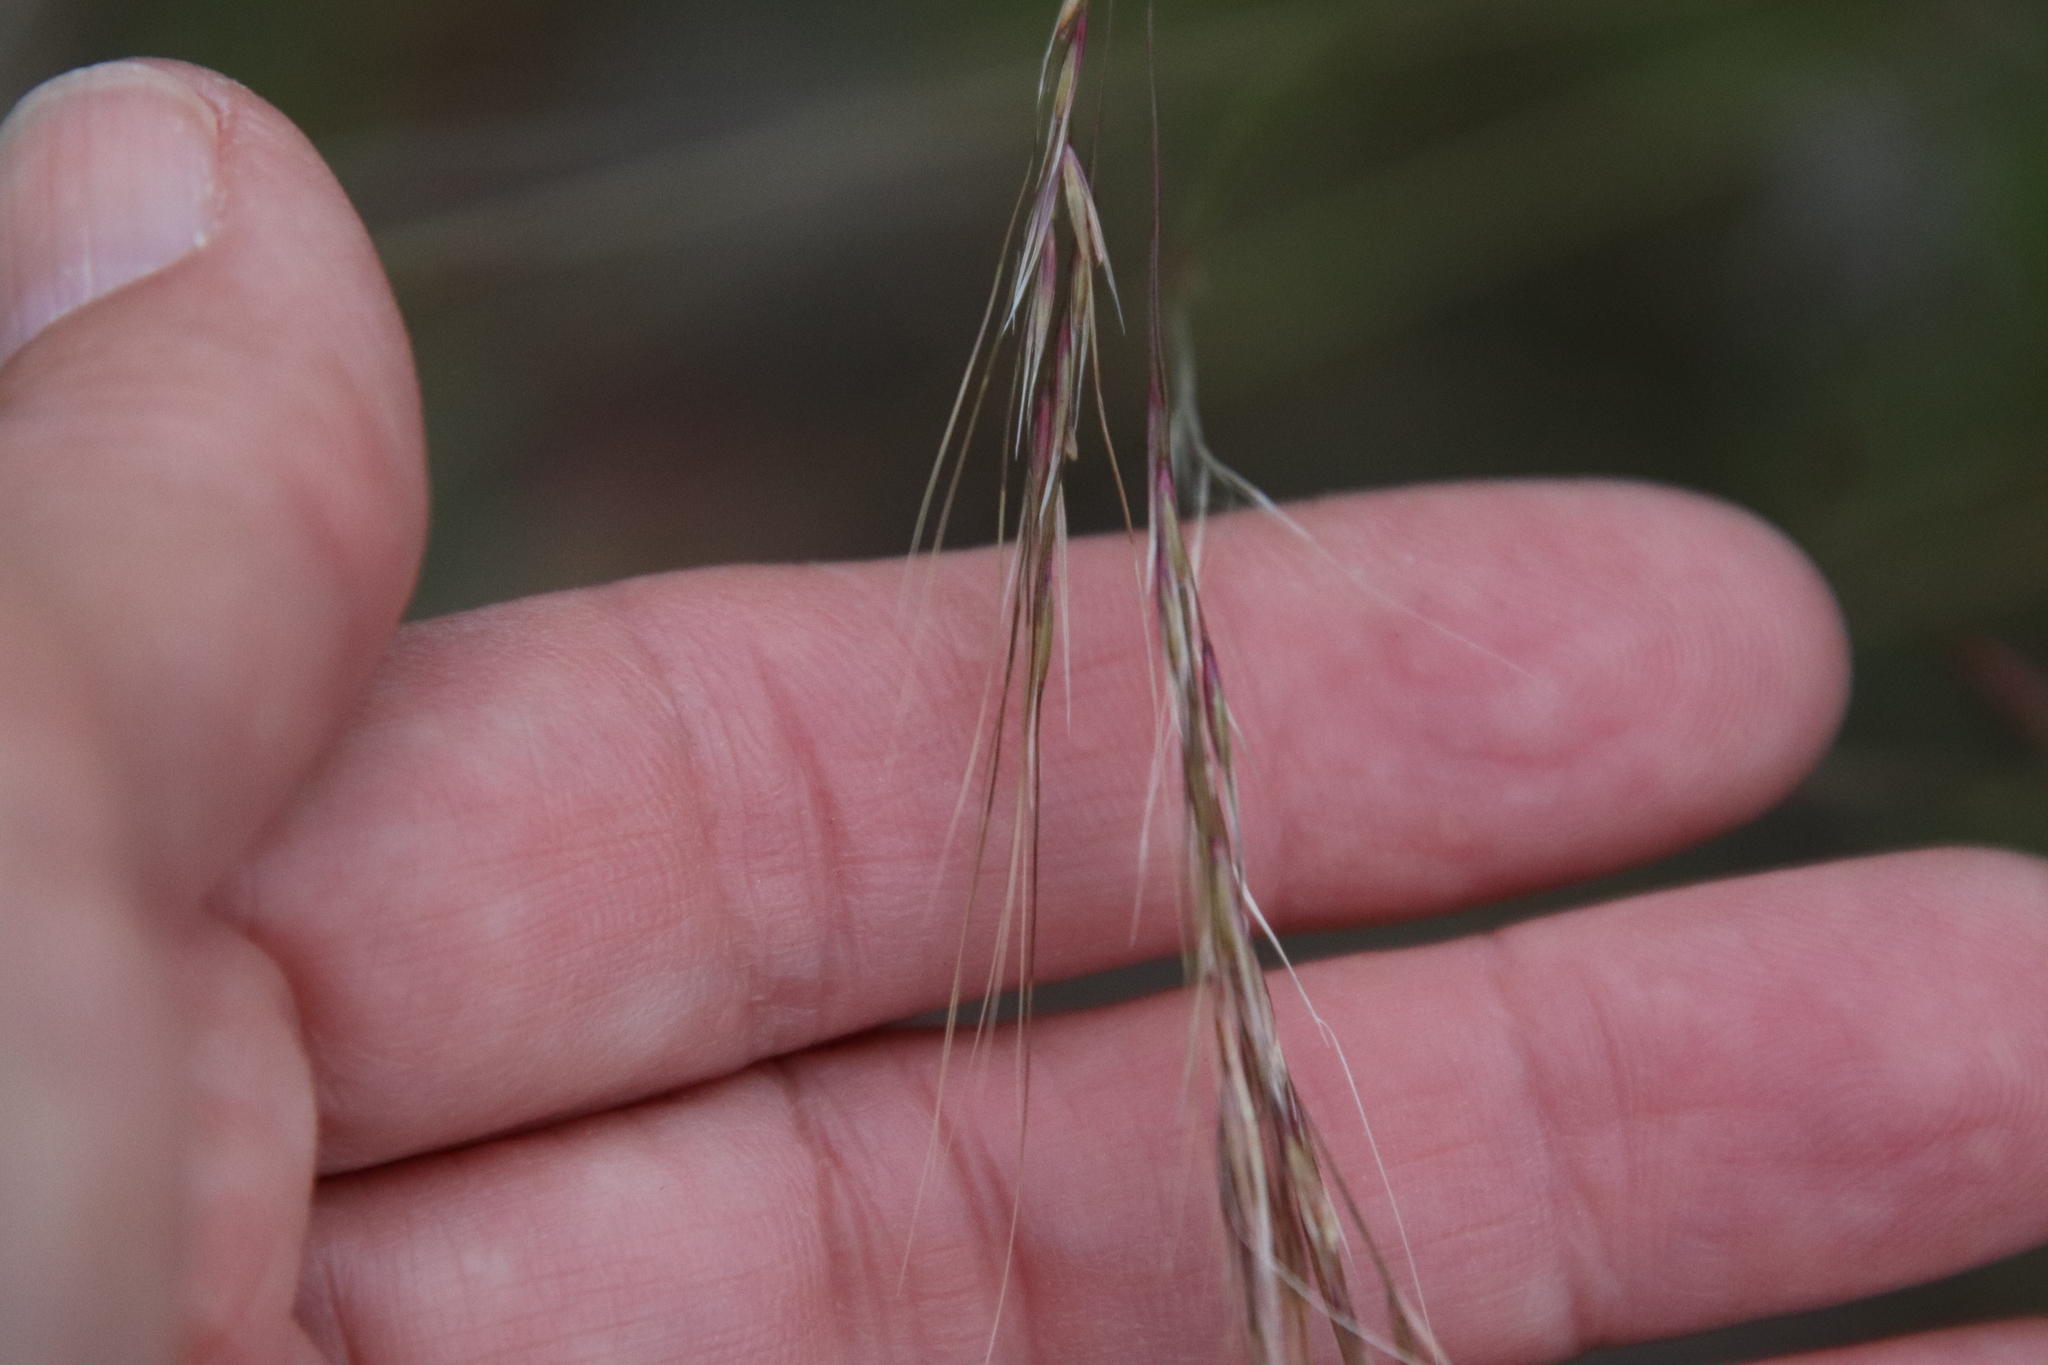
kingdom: Plantae
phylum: Tracheophyta
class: Liliopsida
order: Poales
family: Poaceae
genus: Nassella
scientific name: Nassella lepida
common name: Foothill needlegrass
